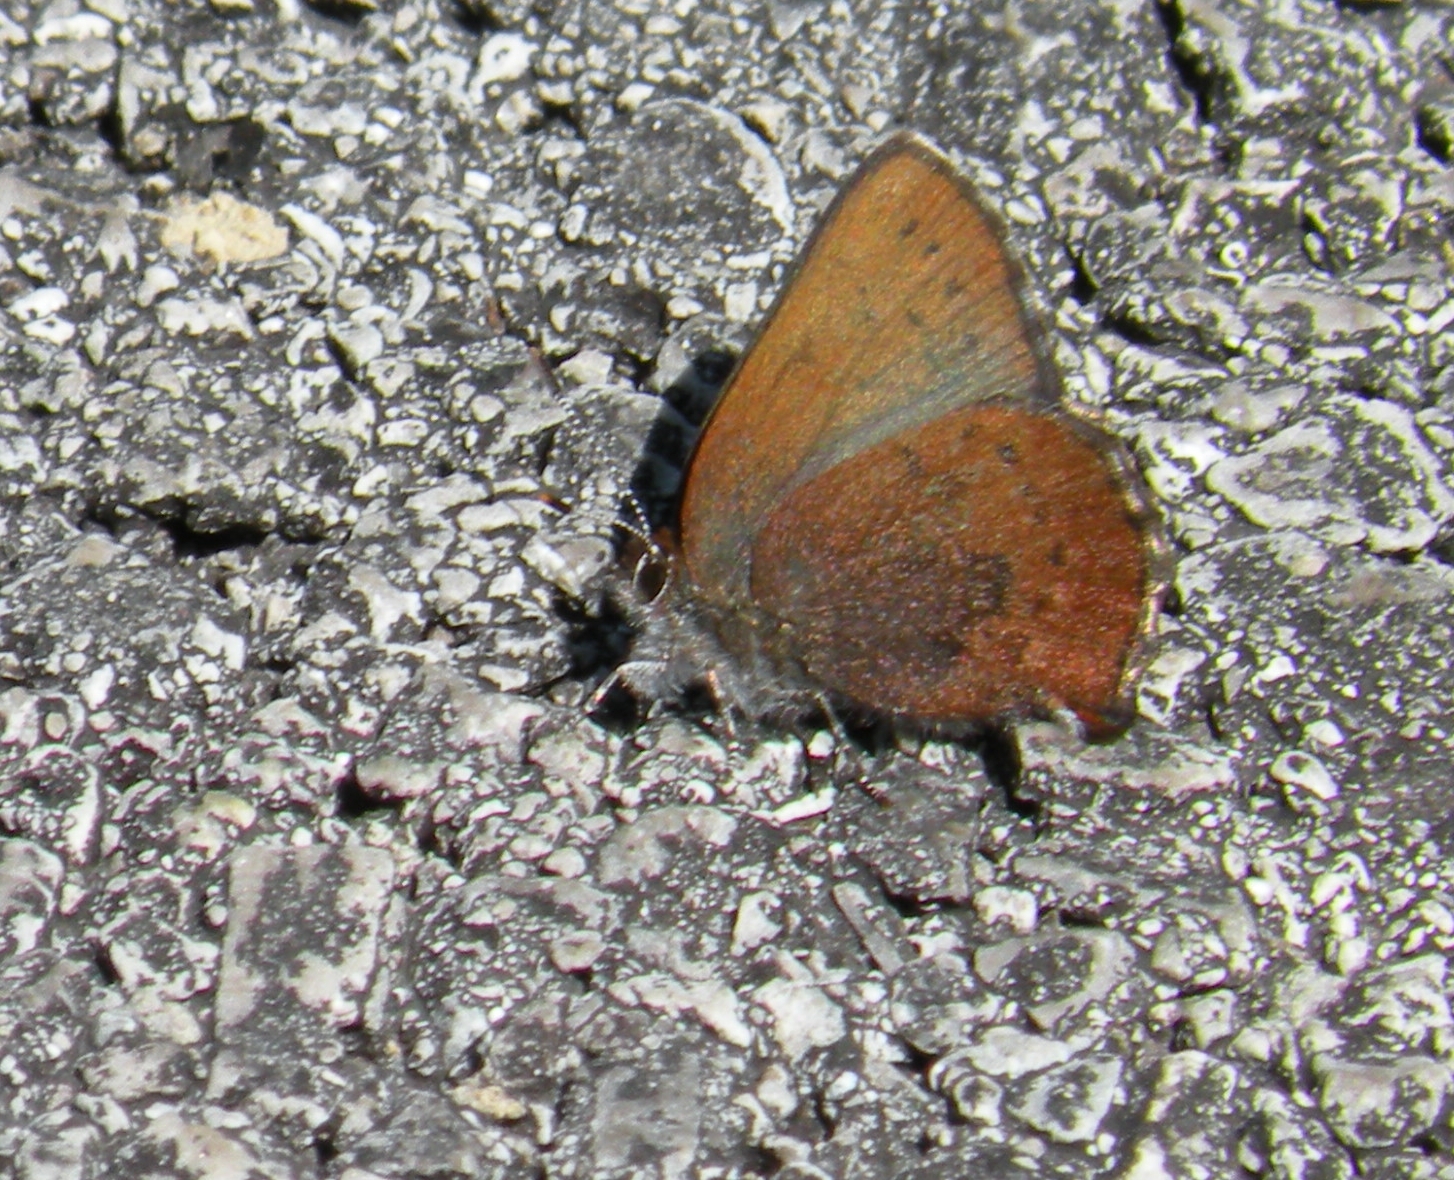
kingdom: Animalia
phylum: Arthropoda
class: Insecta
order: Lepidoptera
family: Lycaenidae
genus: Incisalia
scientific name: Incisalia irioides
